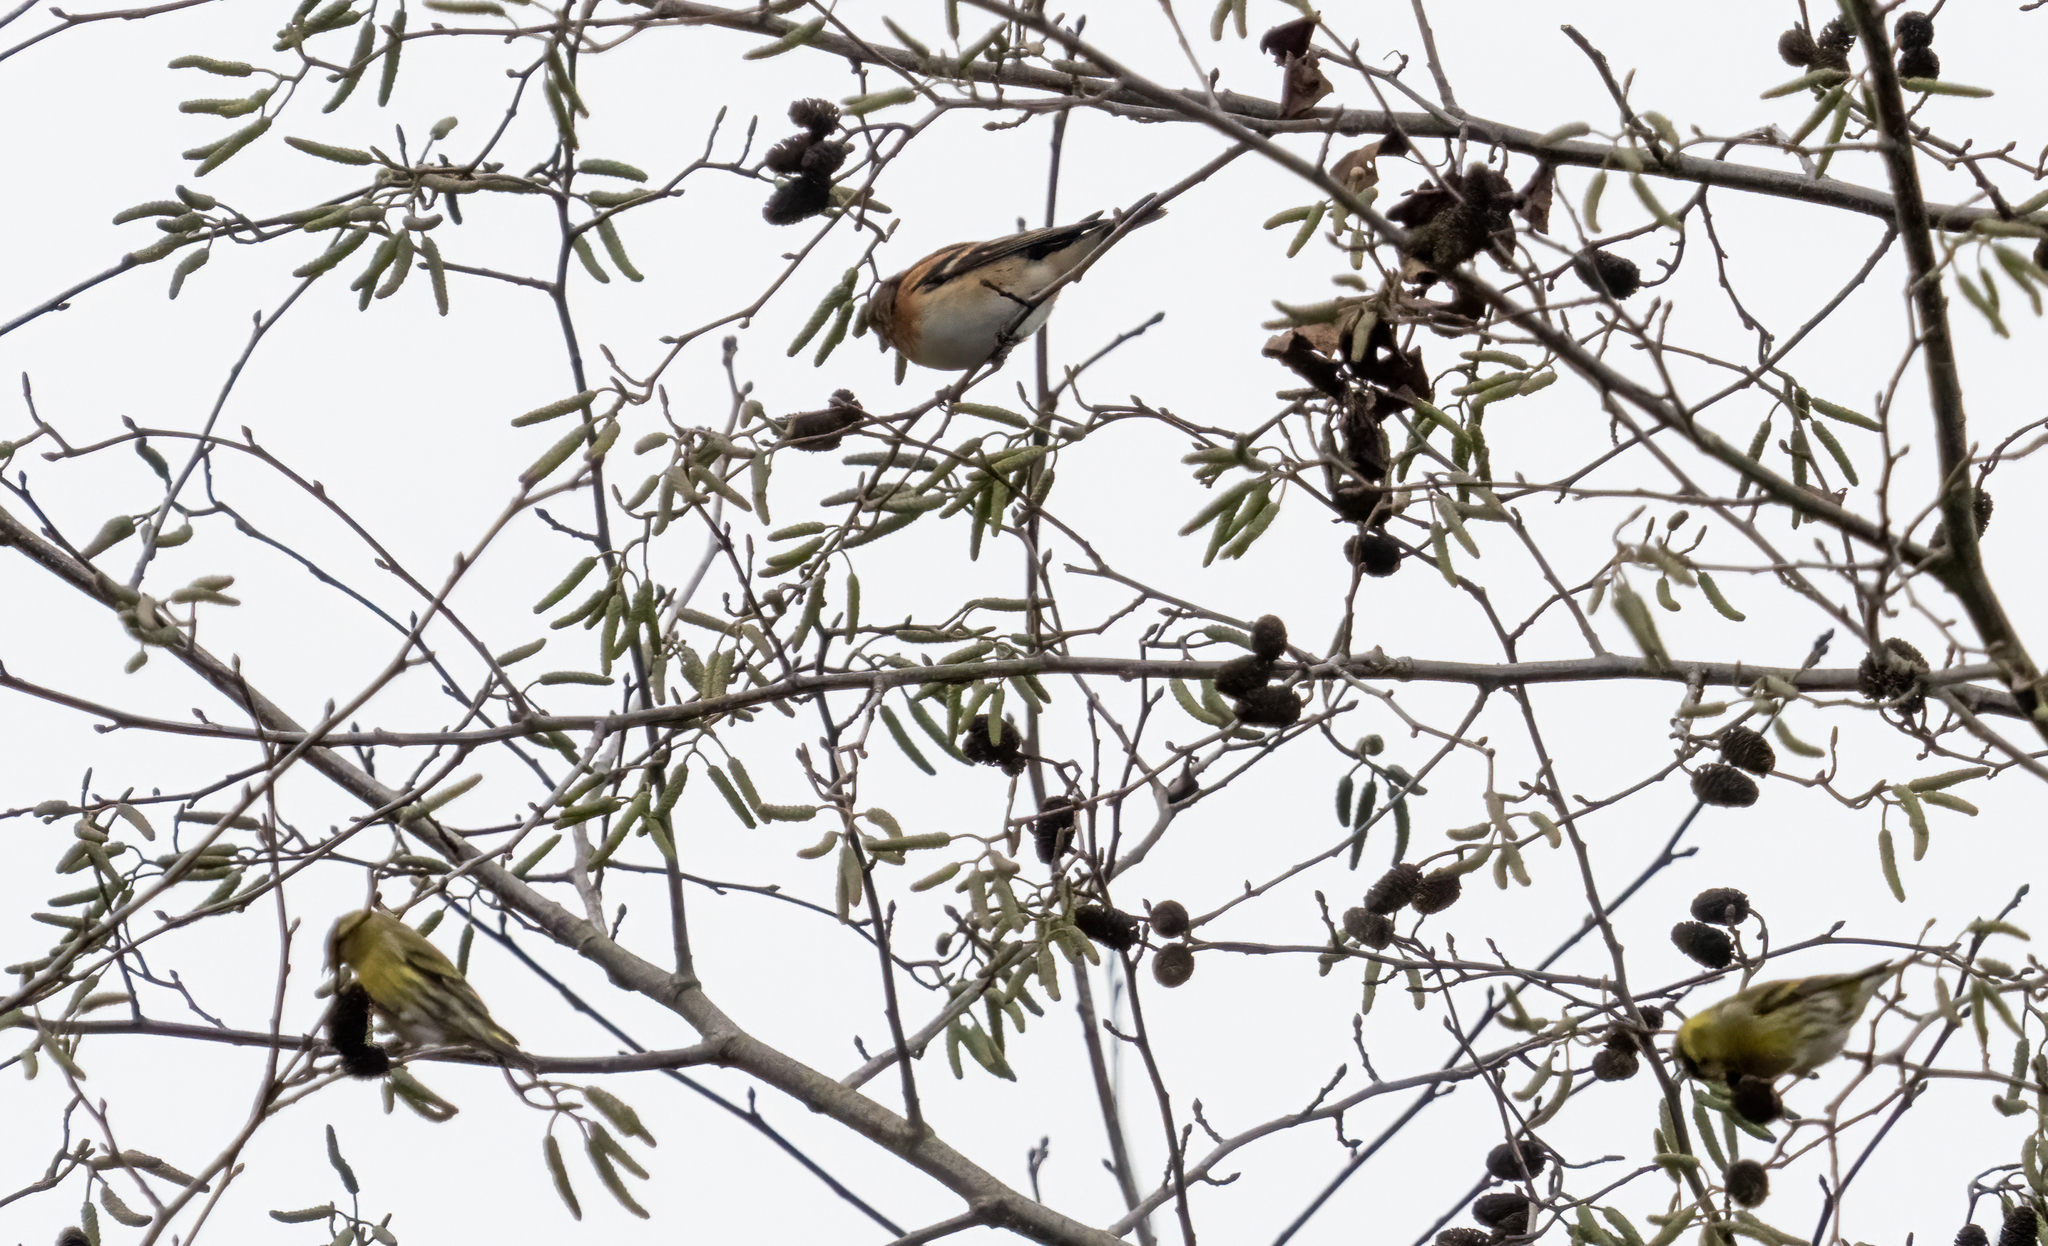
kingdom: Animalia
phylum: Chordata
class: Aves
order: Passeriformes
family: Fringillidae
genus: Fringilla
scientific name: Fringilla montifringilla
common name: Brambling
